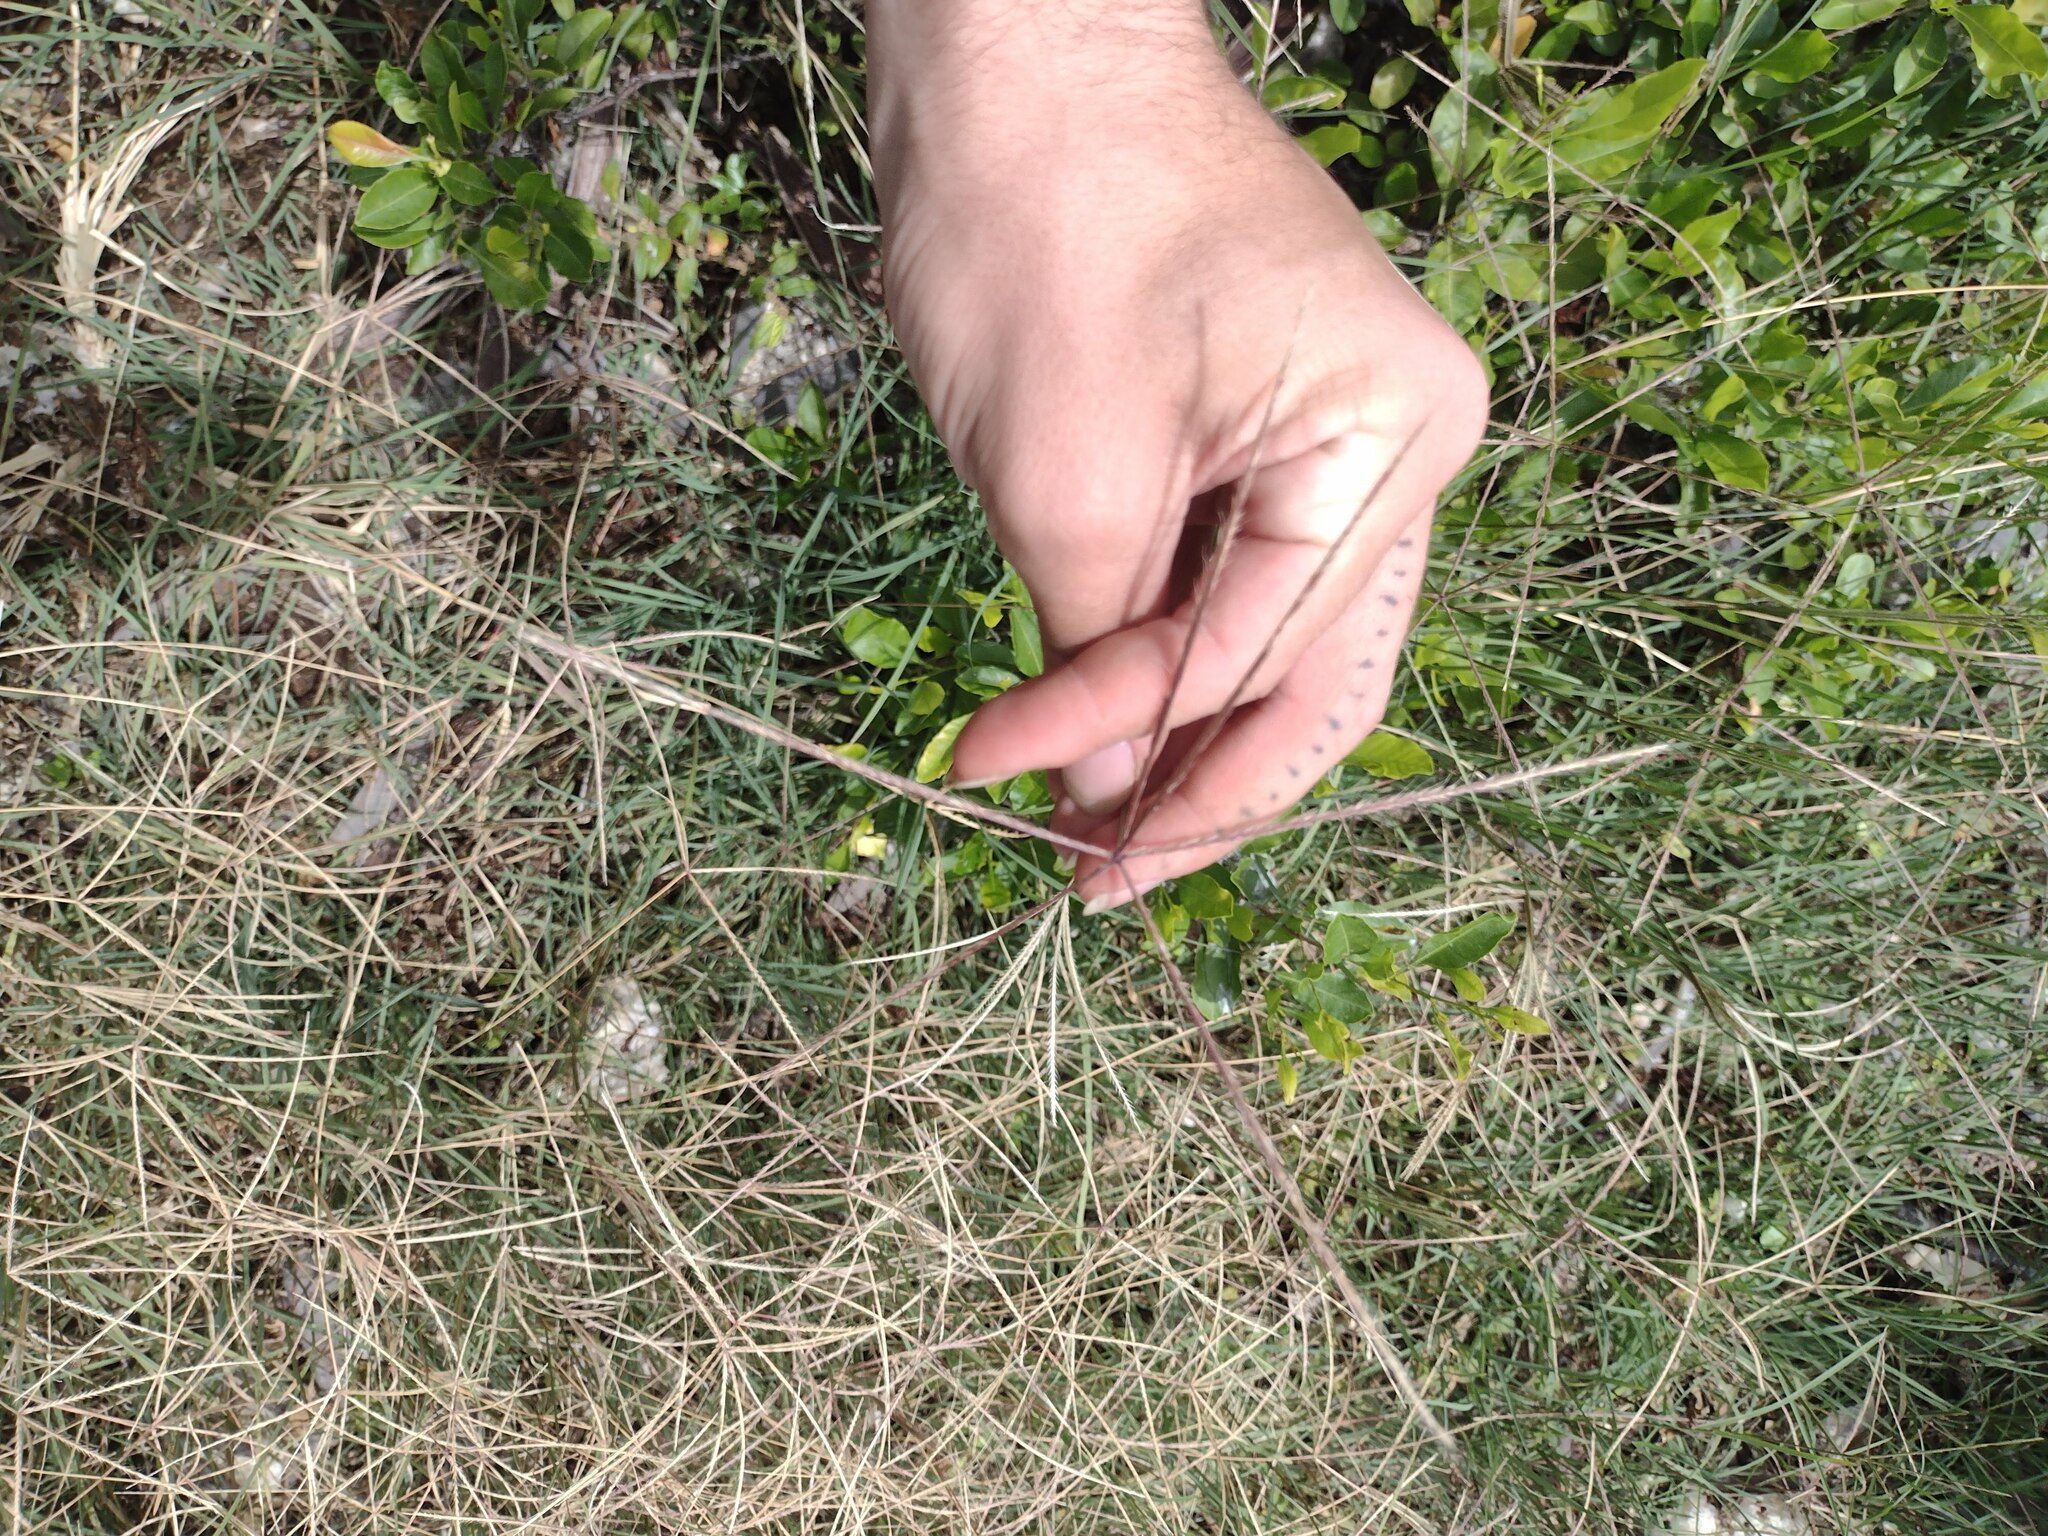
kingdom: Plantae
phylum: Tracheophyta
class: Liliopsida
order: Poales
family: Poaceae
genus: Chloris
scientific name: Chloris divaricata
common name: Spreading windmill grass
